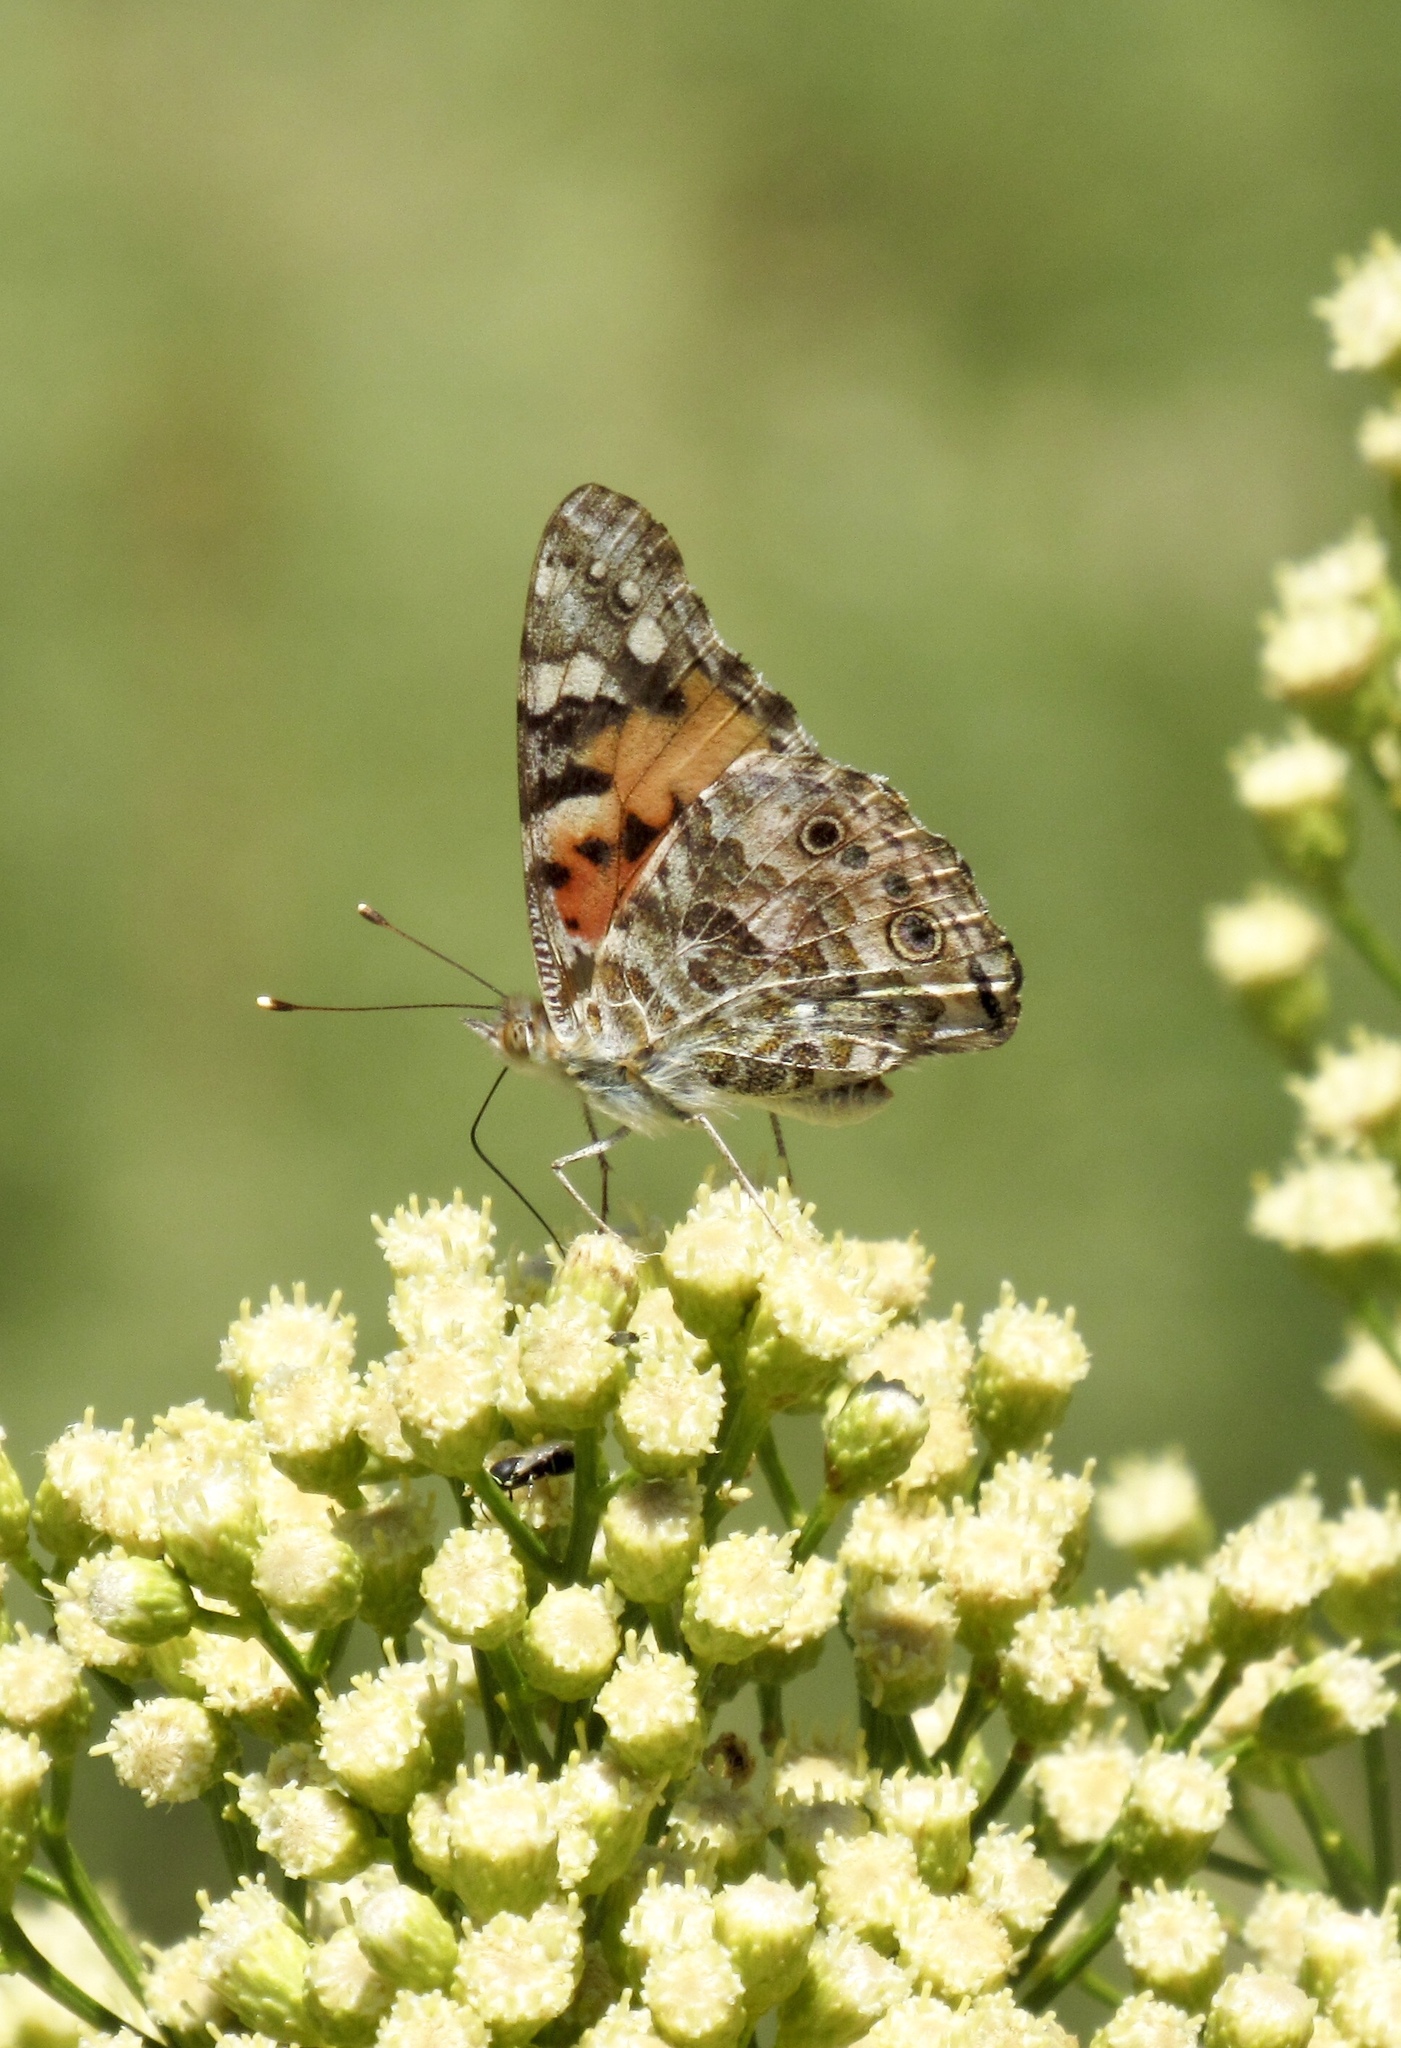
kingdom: Animalia
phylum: Arthropoda
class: Insecta
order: Lepidoptera
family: Nymphalidae
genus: Vanessa
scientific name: Vanessa cardui
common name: Painted lady
